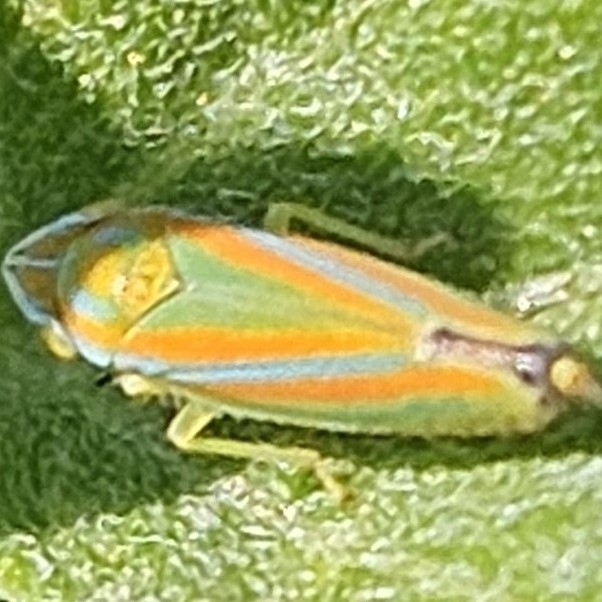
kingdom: Animalia
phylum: Arthropoda
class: Insecta
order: Hemiptera
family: Cicadellidae
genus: Graphocephala
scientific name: Graphocephala versuta
